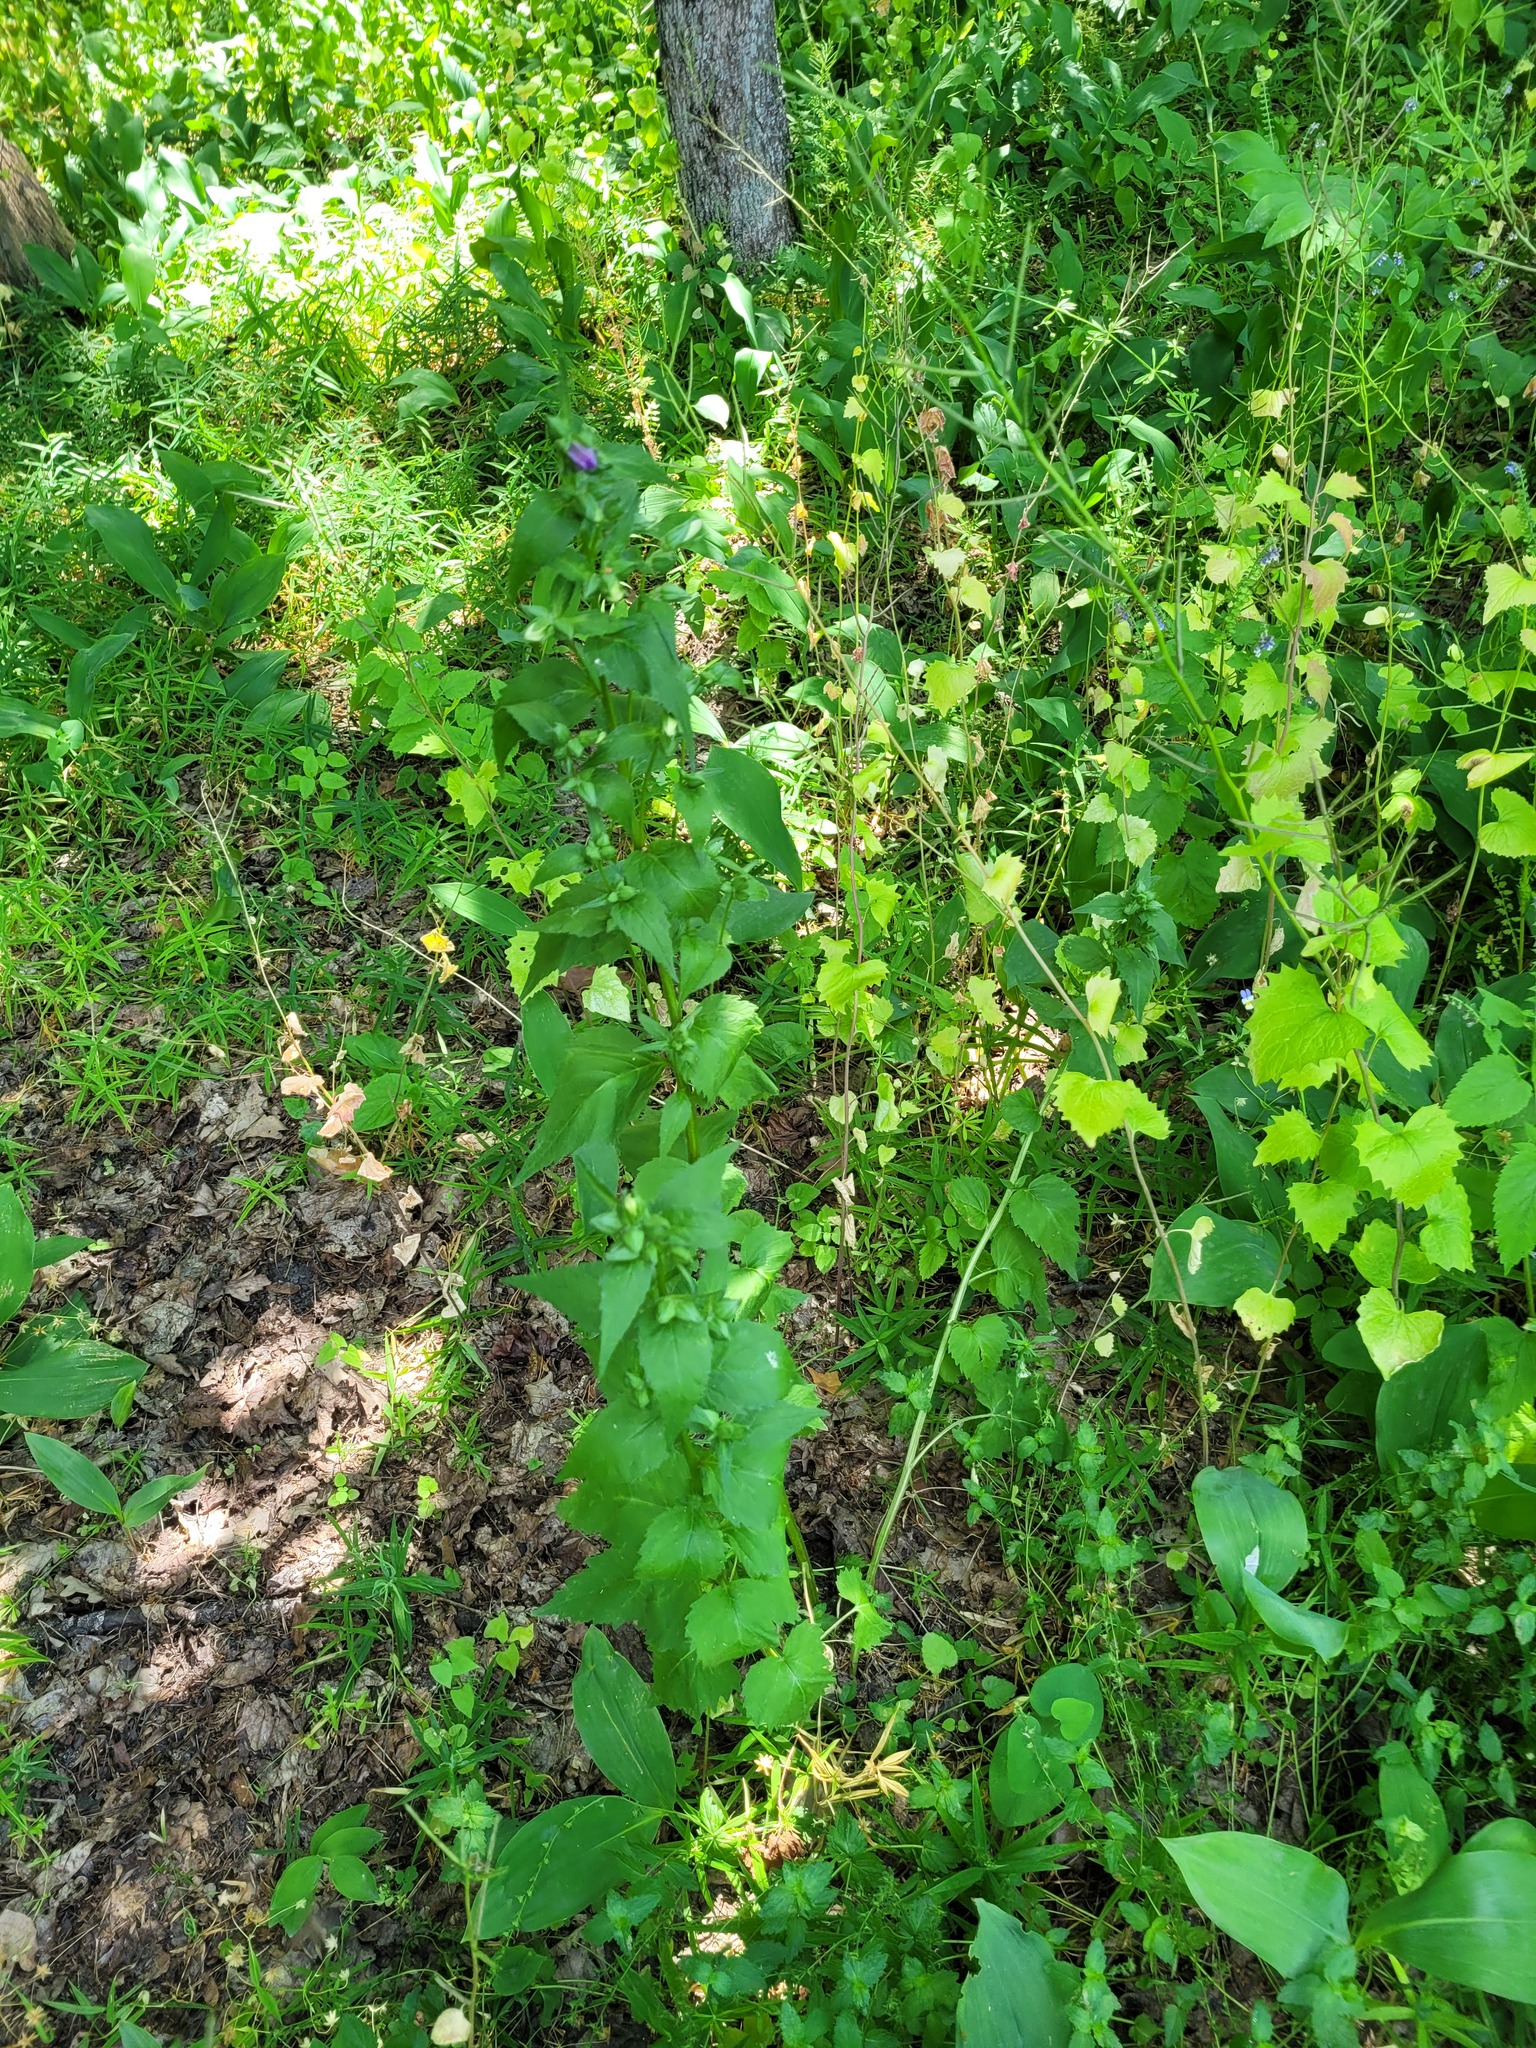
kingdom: Plantae
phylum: Tracheophyta
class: Magnoliopsida
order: Asterales
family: Campanulaceae
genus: Campanula
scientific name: Campanula trachelium
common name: Nettle-leaved bellflower
